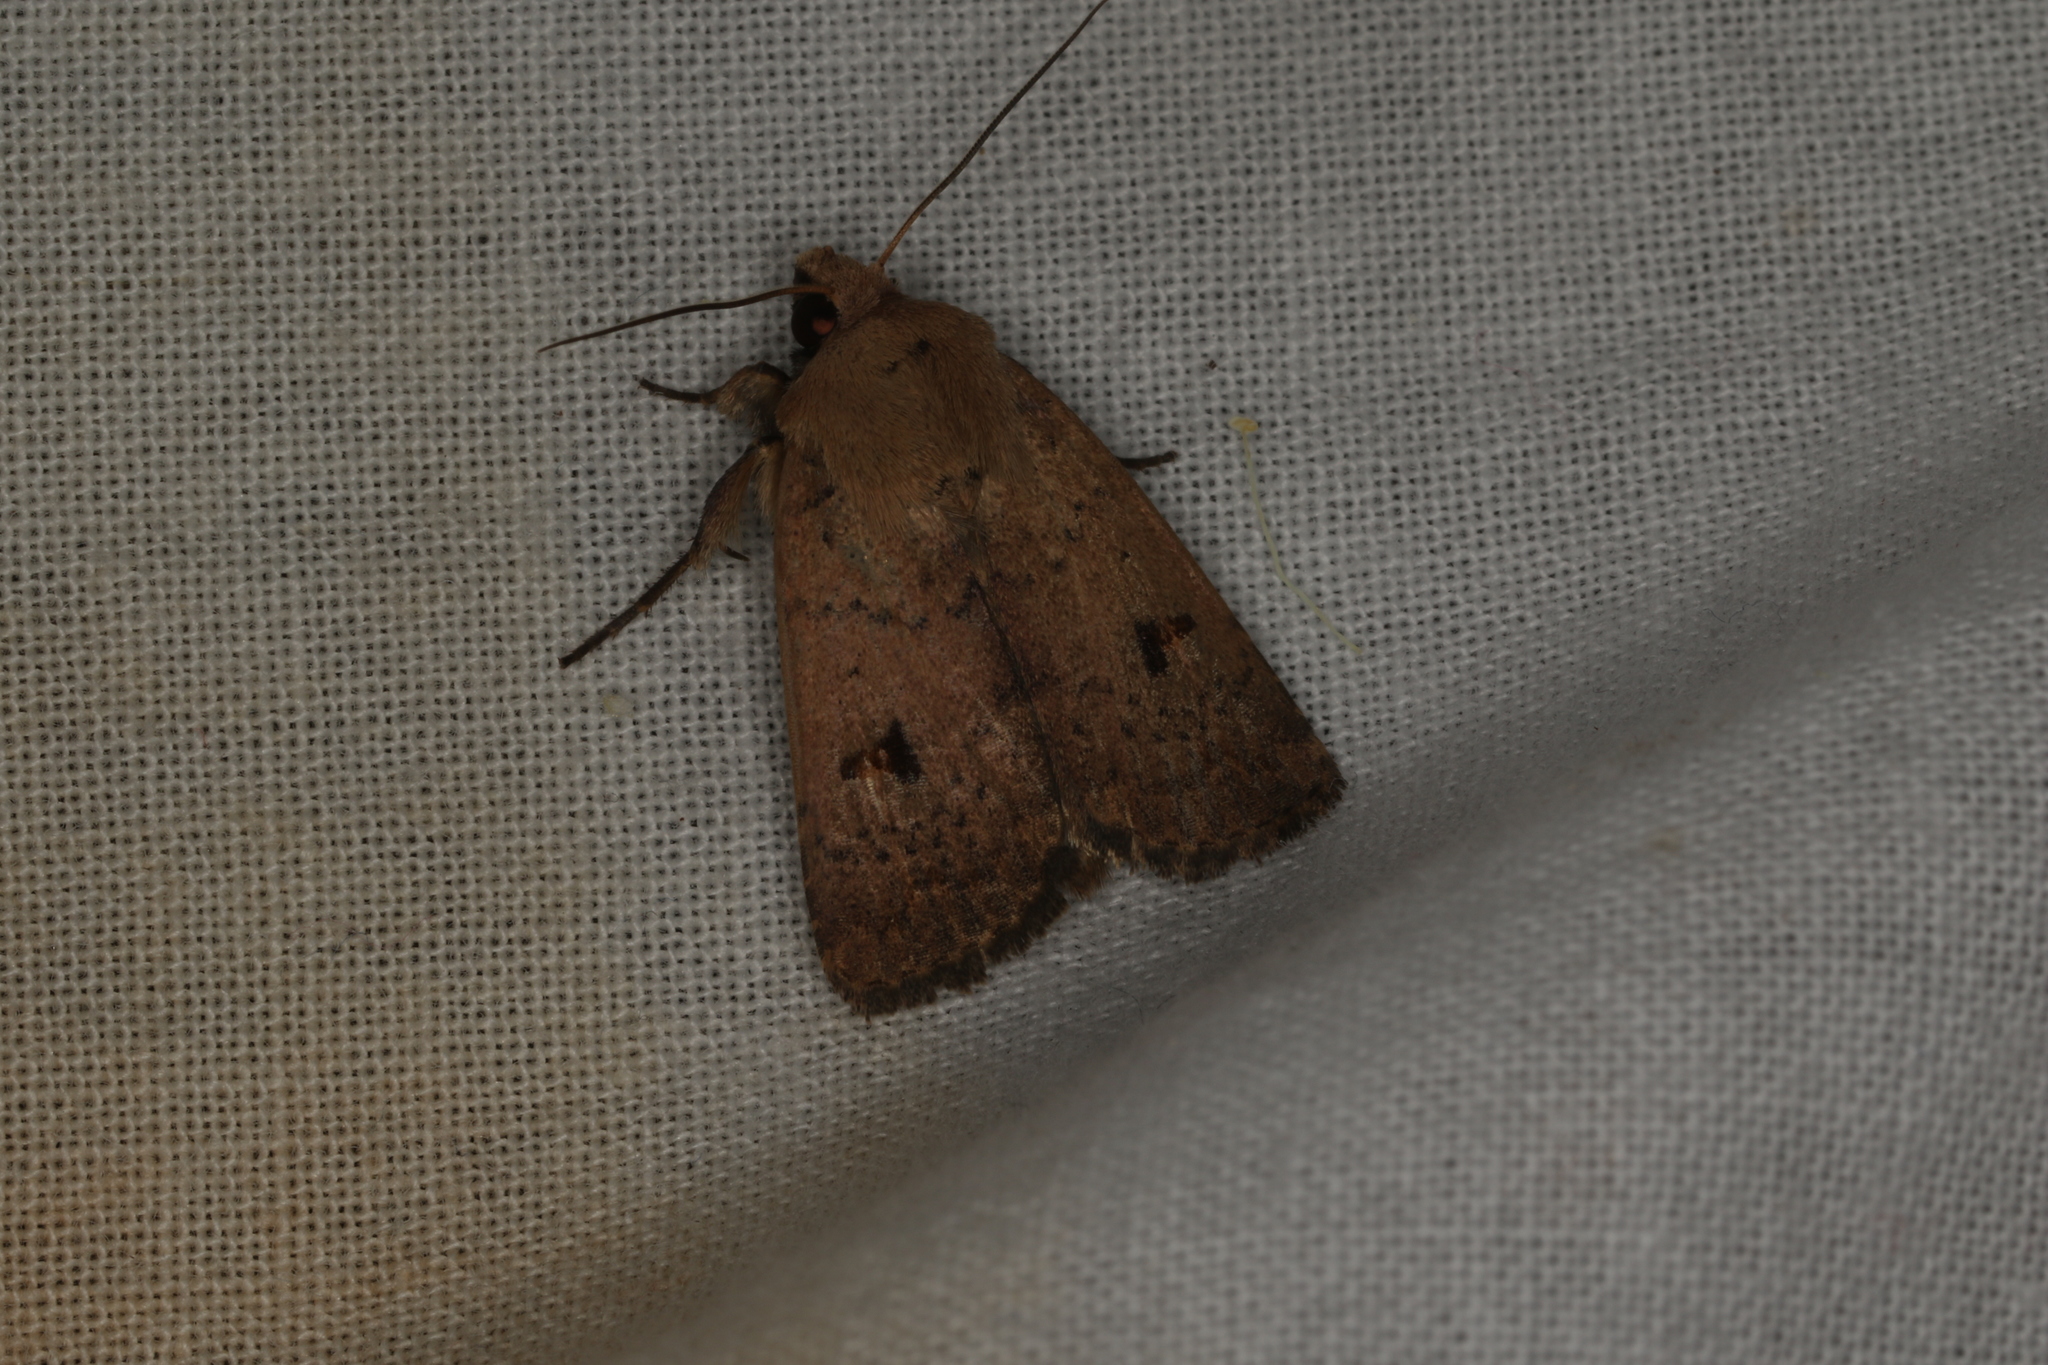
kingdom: Animalia
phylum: Arthropoda
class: Insecta
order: Lepidoptera
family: Noctuidae
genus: Proteuxoa
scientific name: Proteuxoa hypochalchis
